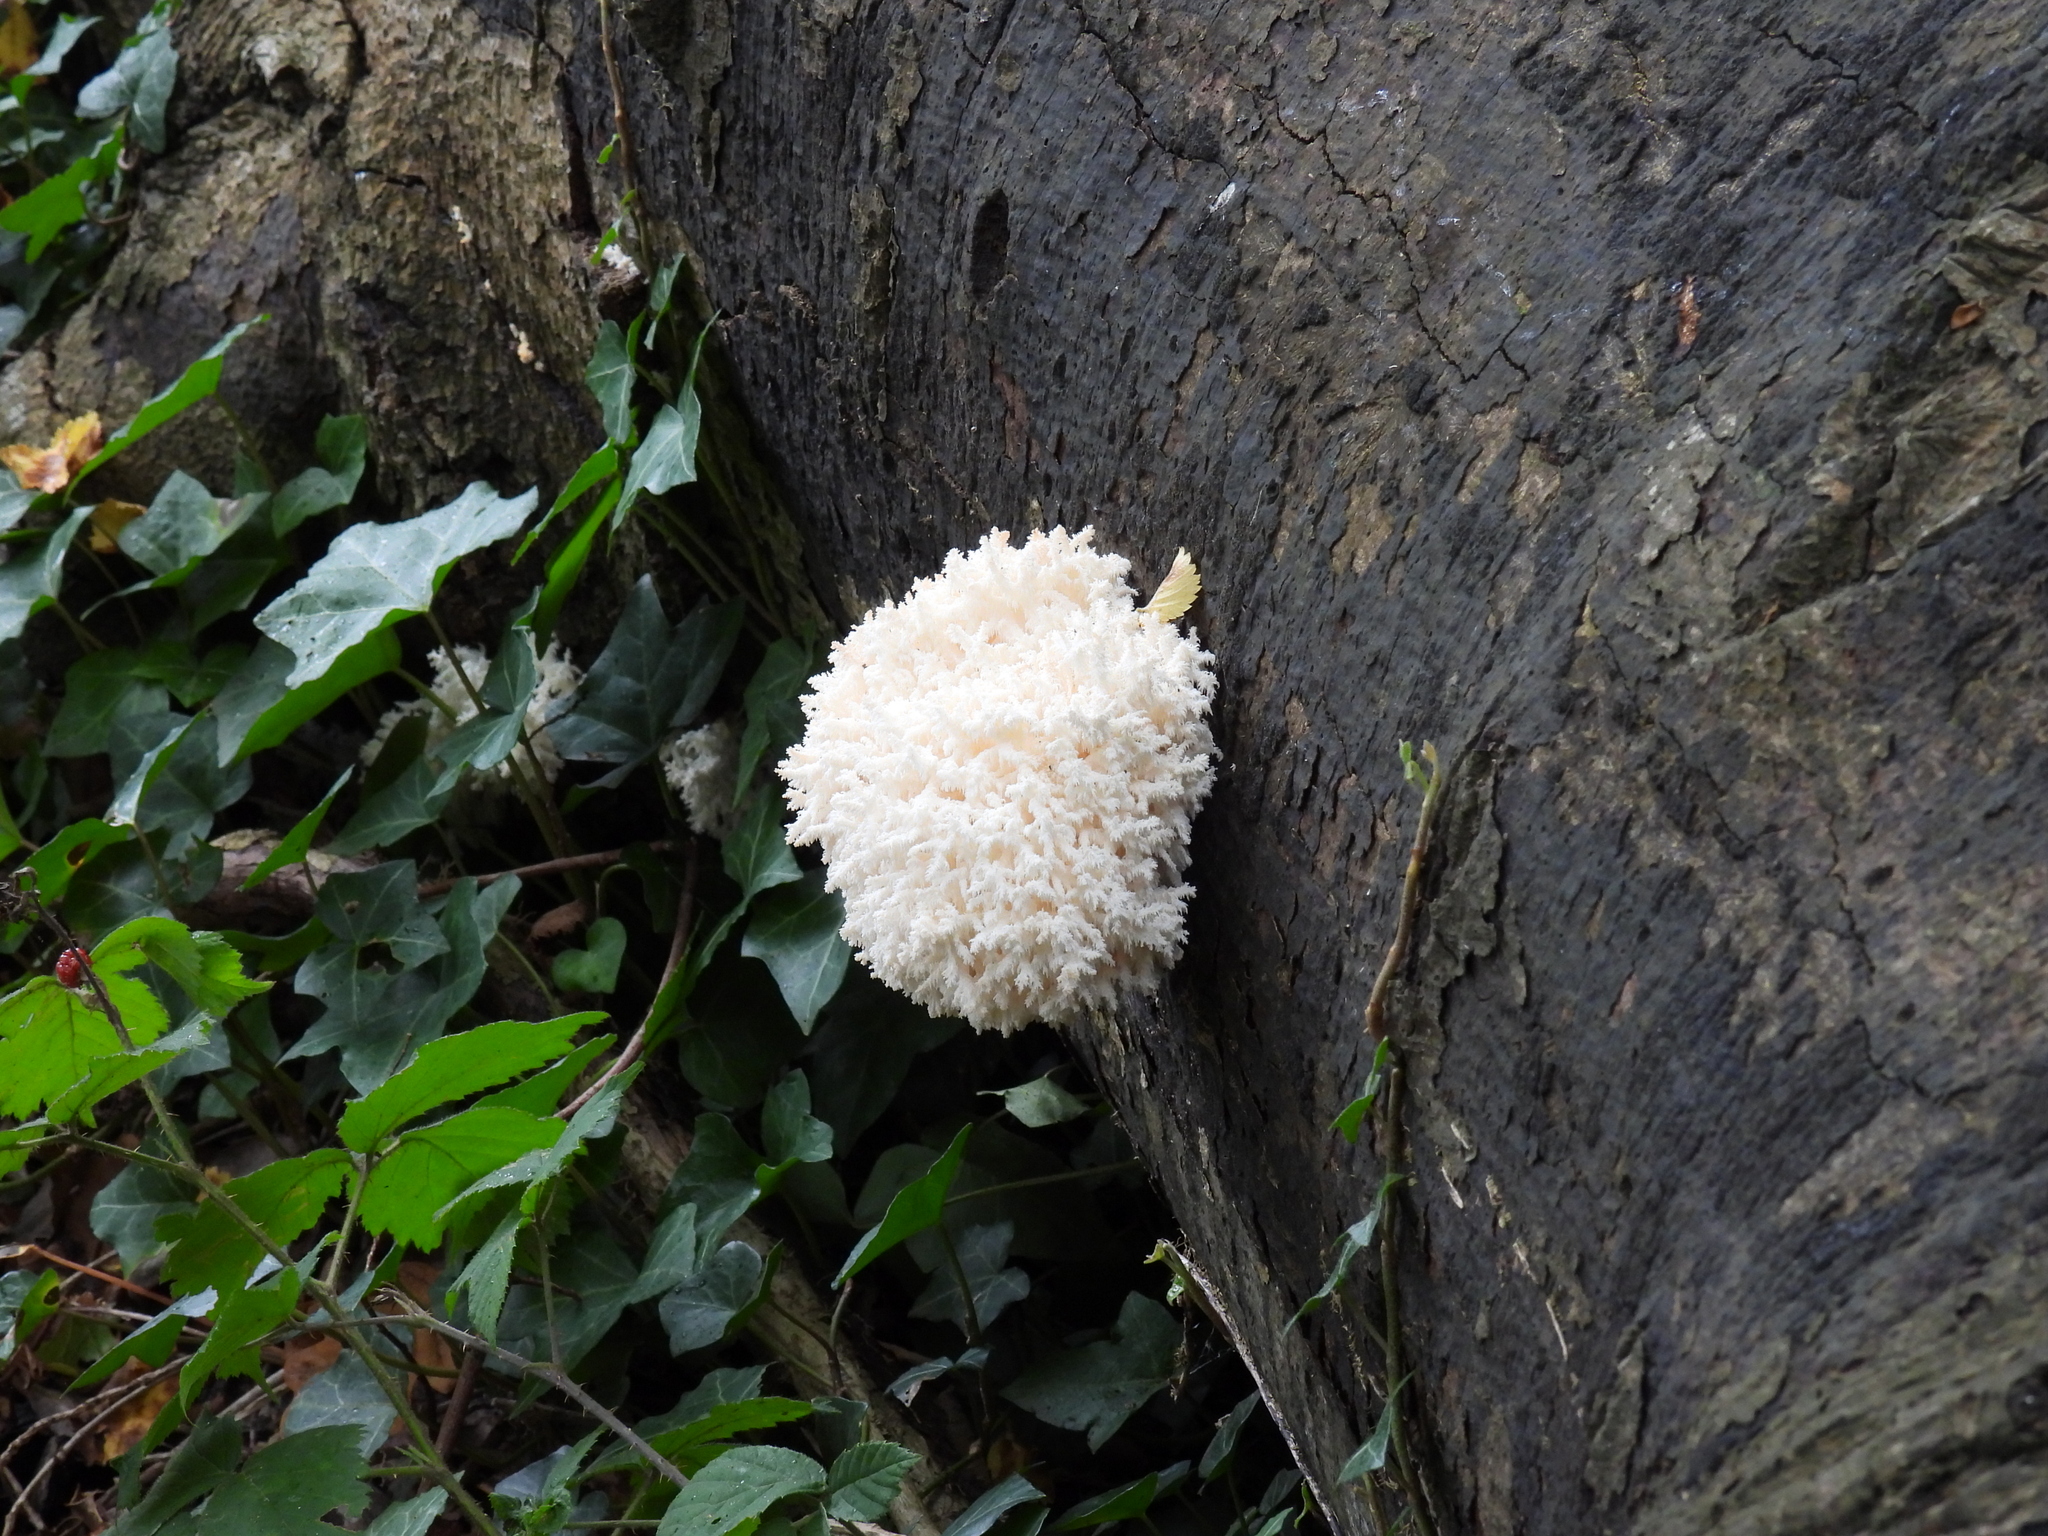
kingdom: Fungi
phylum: Basidiomycota
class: Agaricomycetes
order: Russulales
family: Hericiaceae
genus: Hericium
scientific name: Hericium coralloides
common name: Coral tooth
